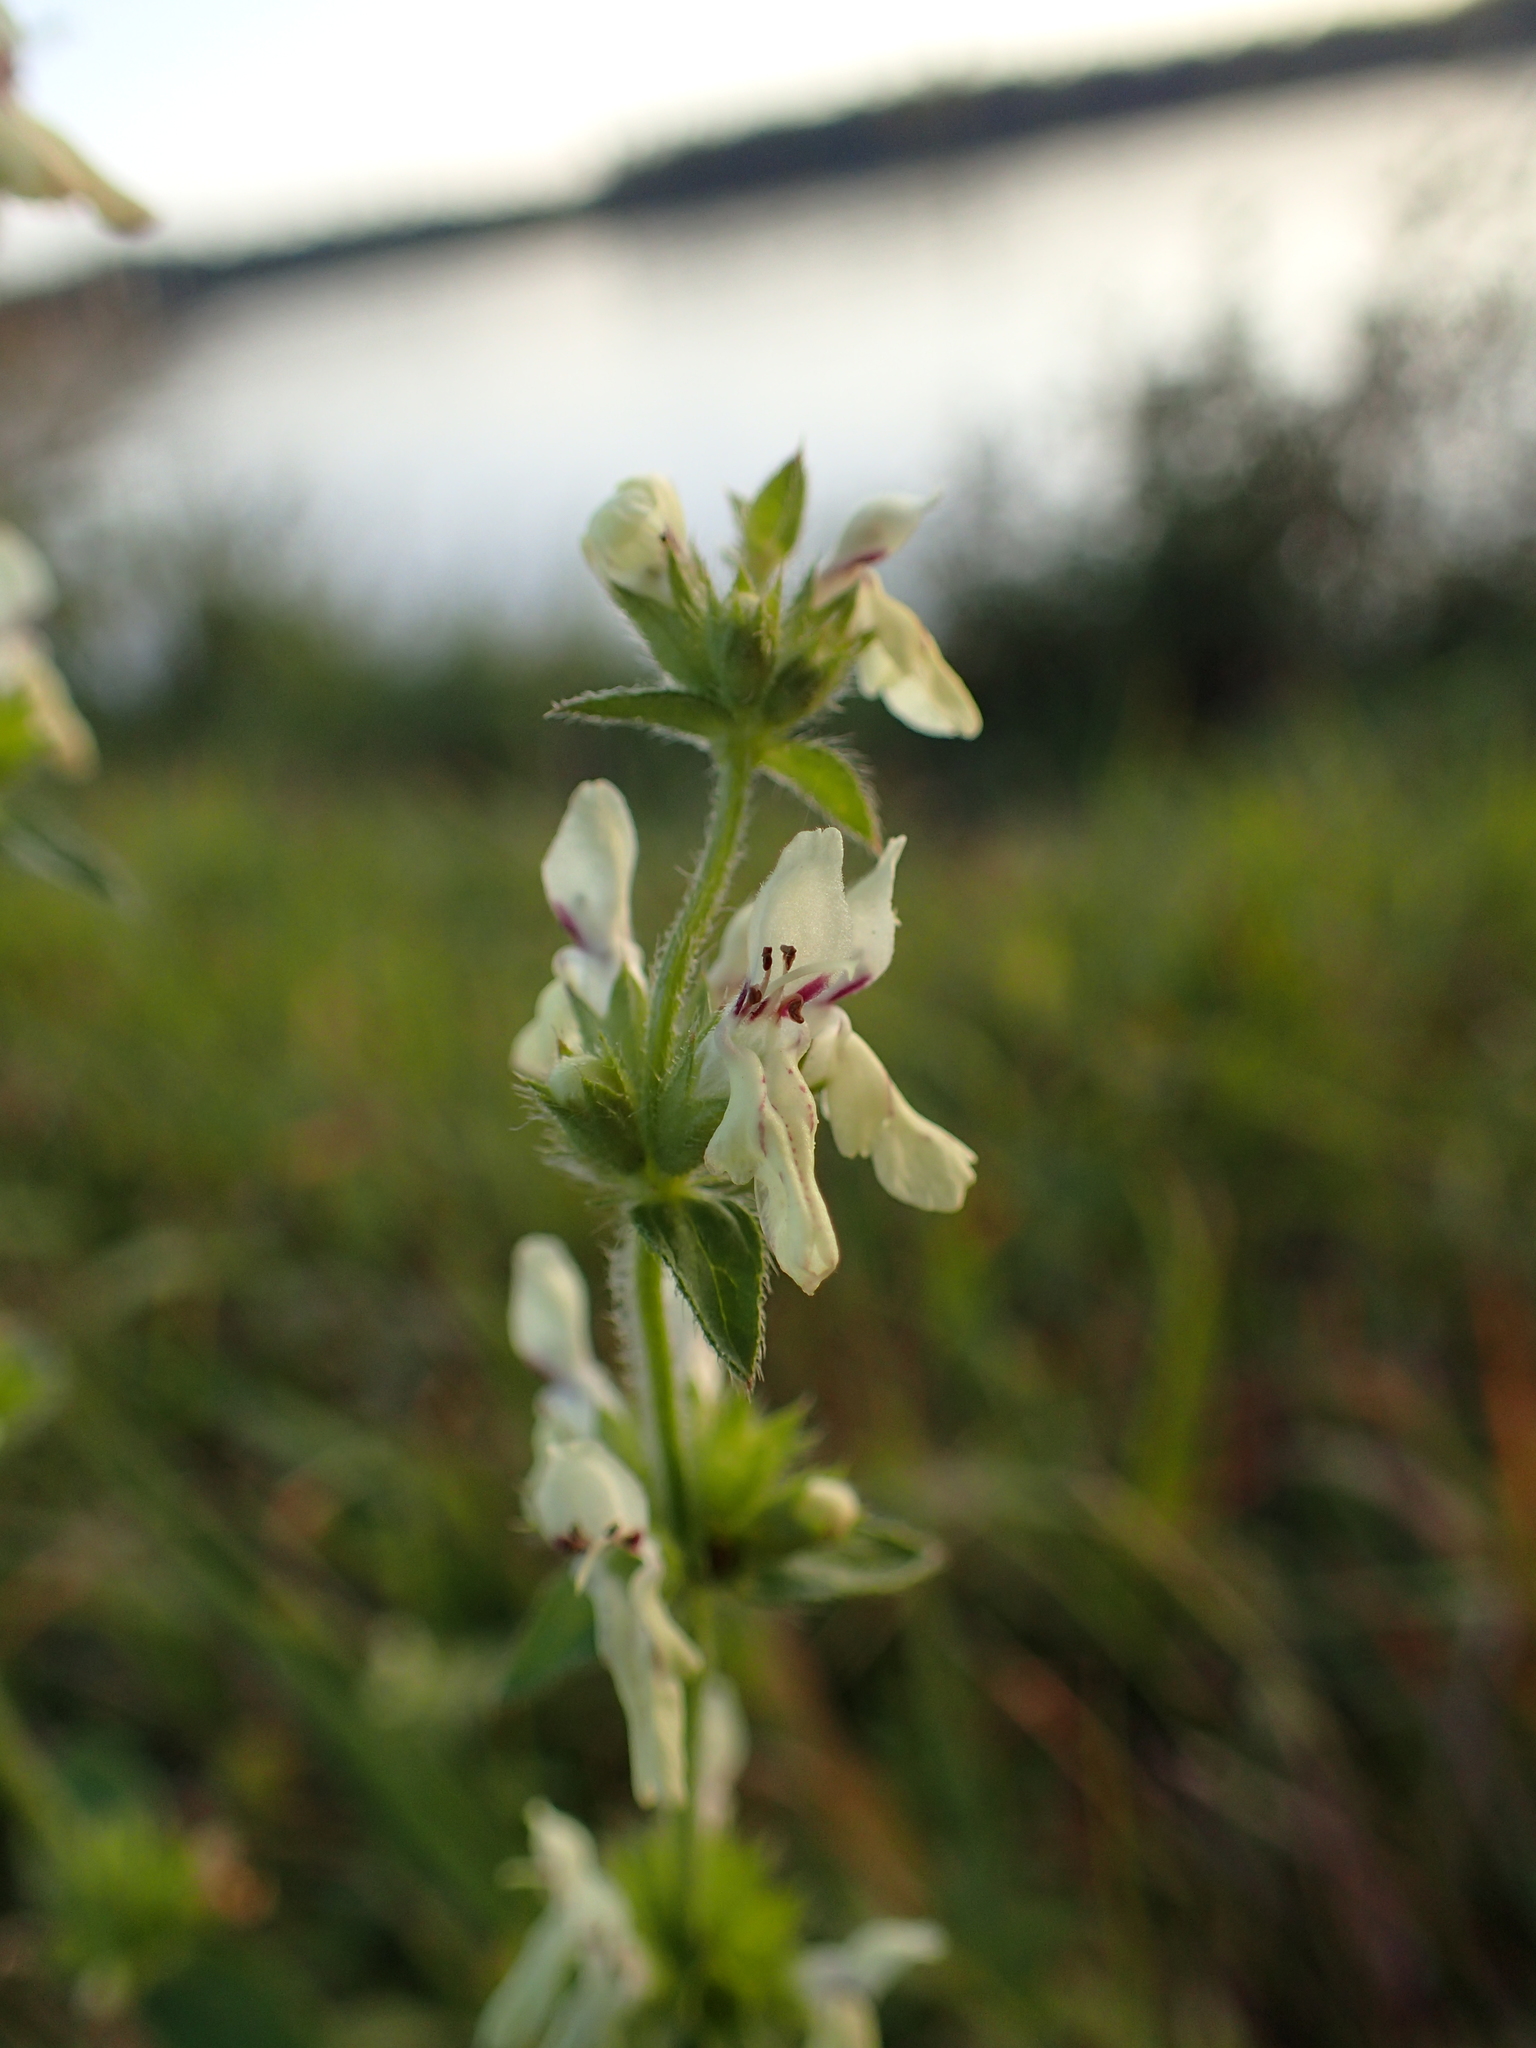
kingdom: Plantae
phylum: Tracheophyta
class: Magnoliopsida
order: Lamiales
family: Lamiaceae
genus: Stachys
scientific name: Stachys recta
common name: Perennial yellow-woundwort
